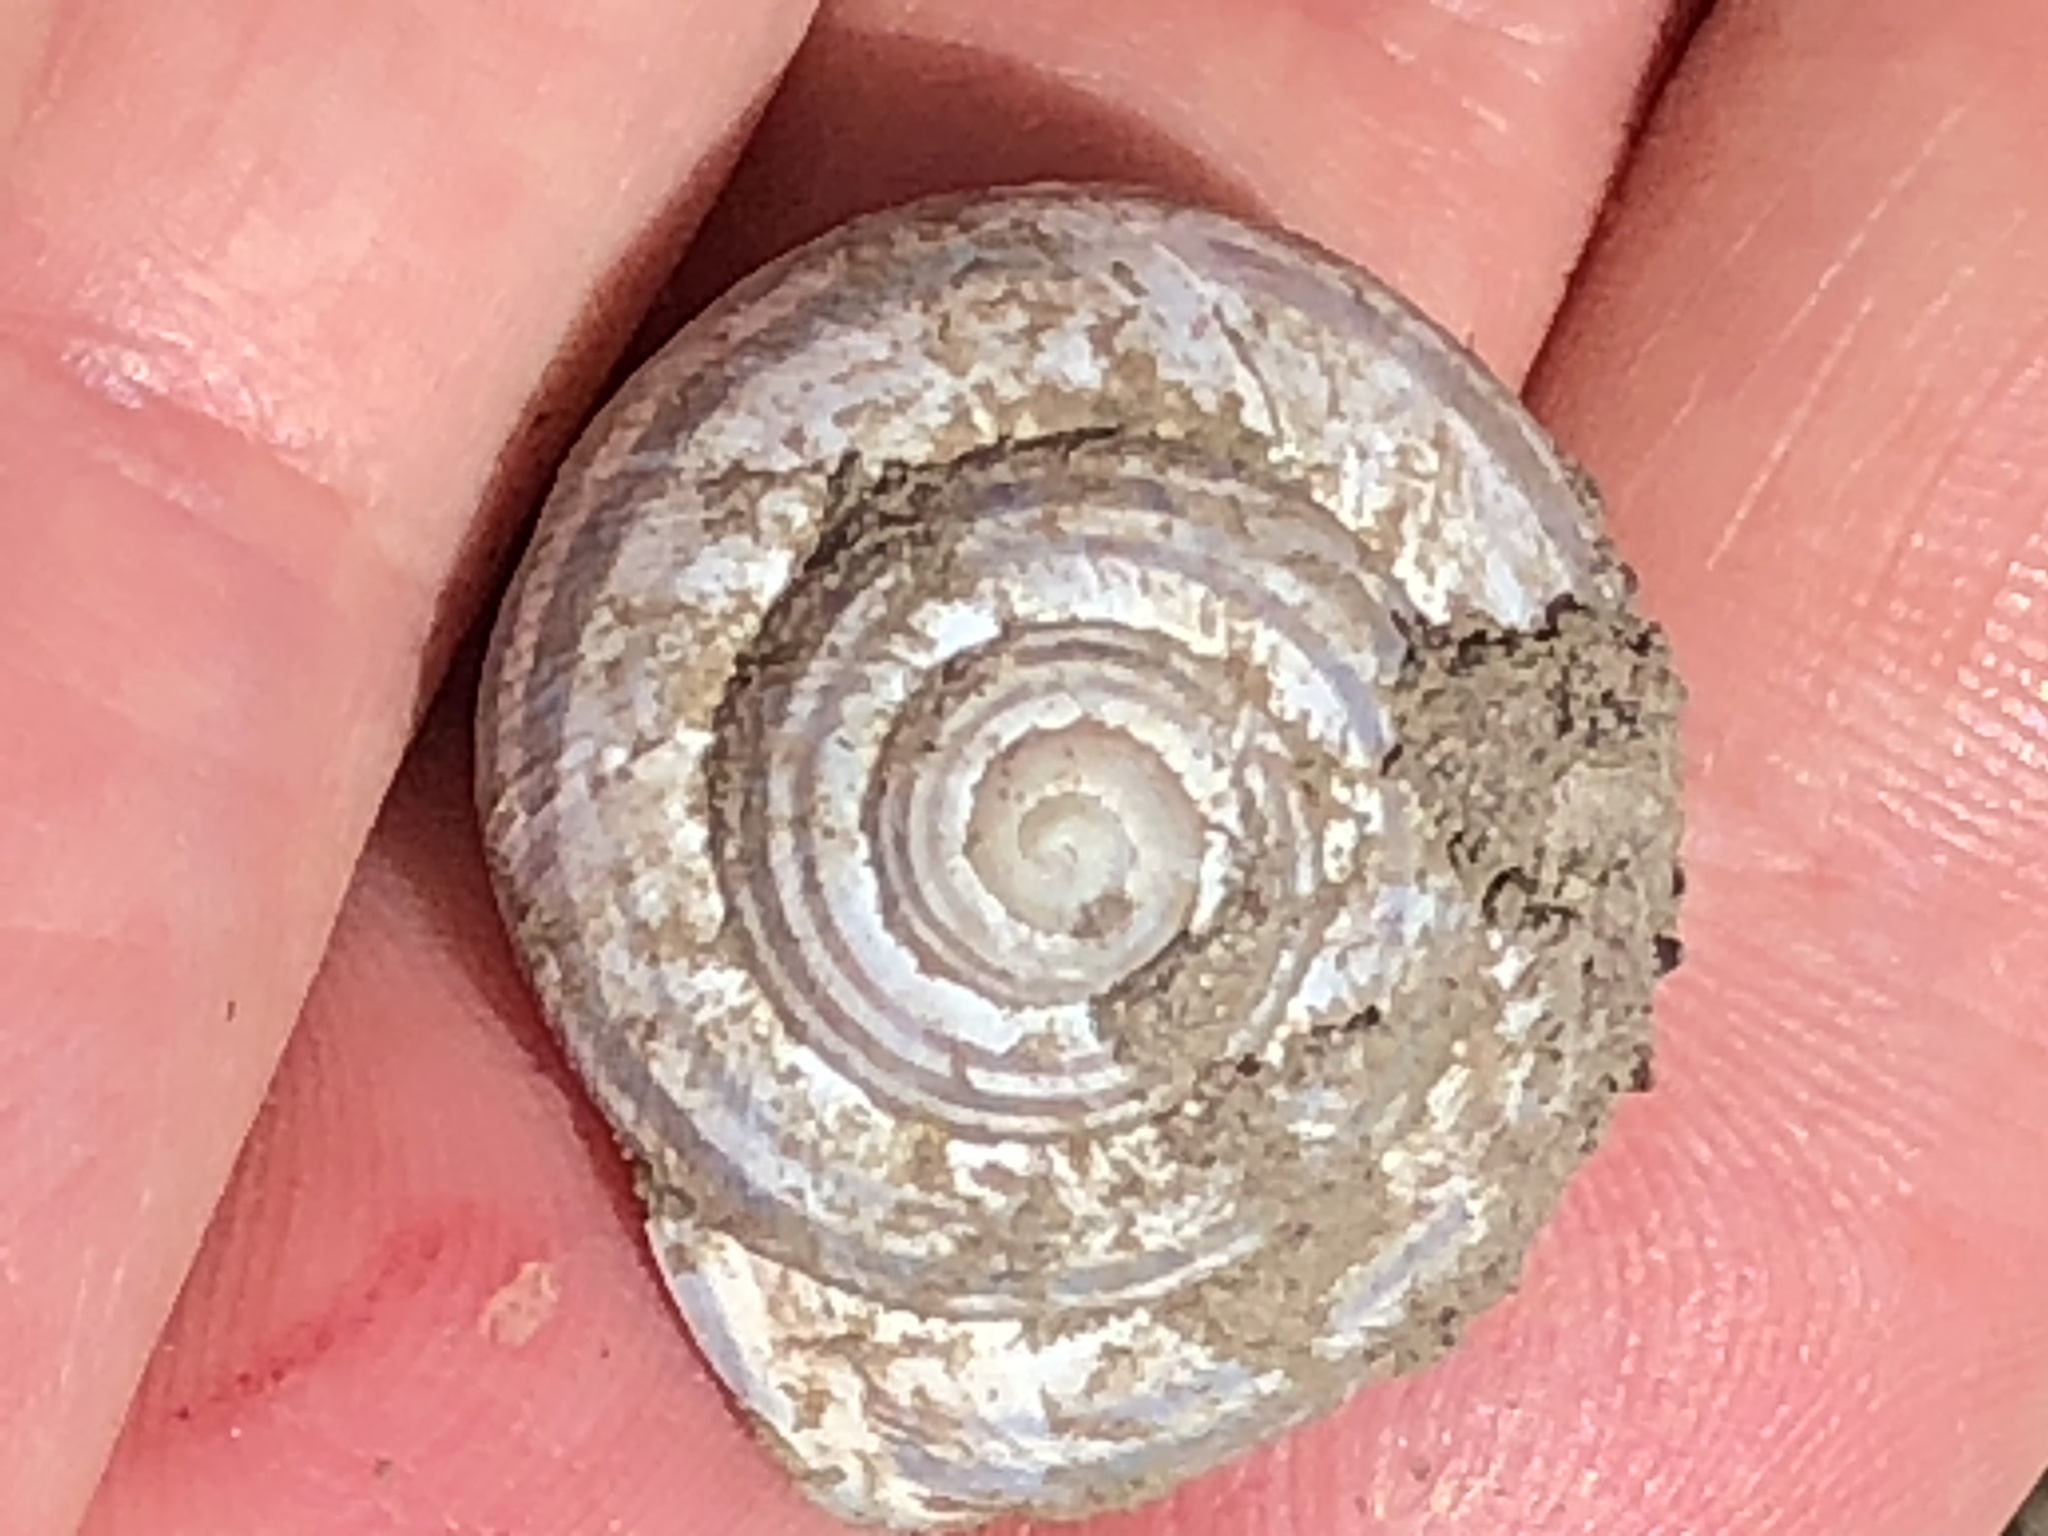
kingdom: Animalia
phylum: Mollusca
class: Gastropoda
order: Stylommatophora
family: Helicidae
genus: Cepaea
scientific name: Cepaea nemoralis
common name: Grovesnail
